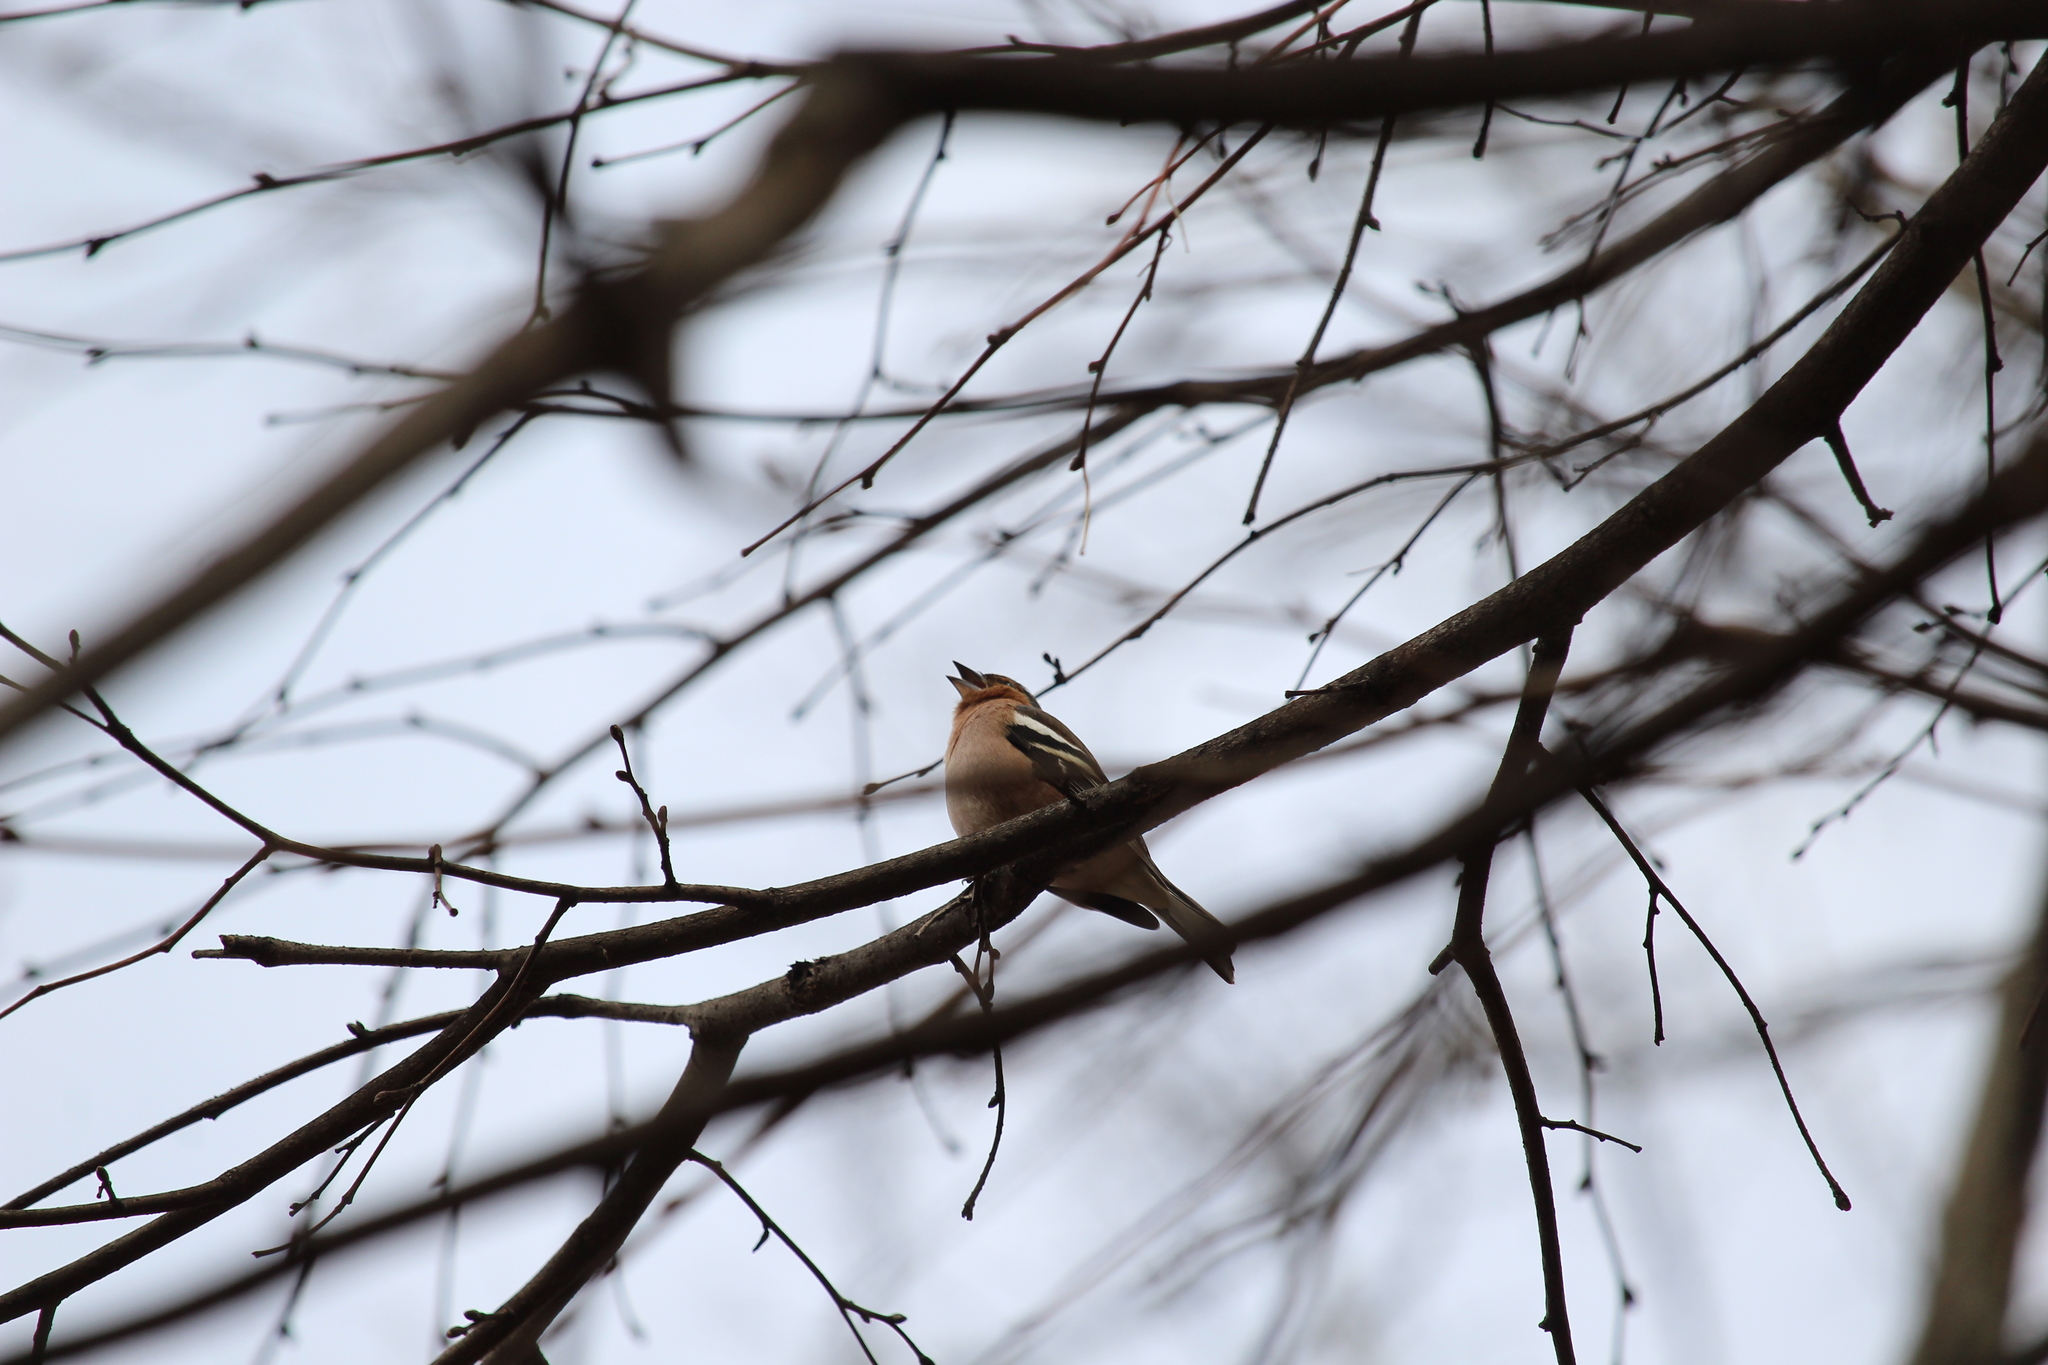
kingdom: Animalia
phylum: Chordata
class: Aves
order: Passeriformes
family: Fringillidae
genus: Fringilla
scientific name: Fringilla coelebs
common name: Common chaffinch
